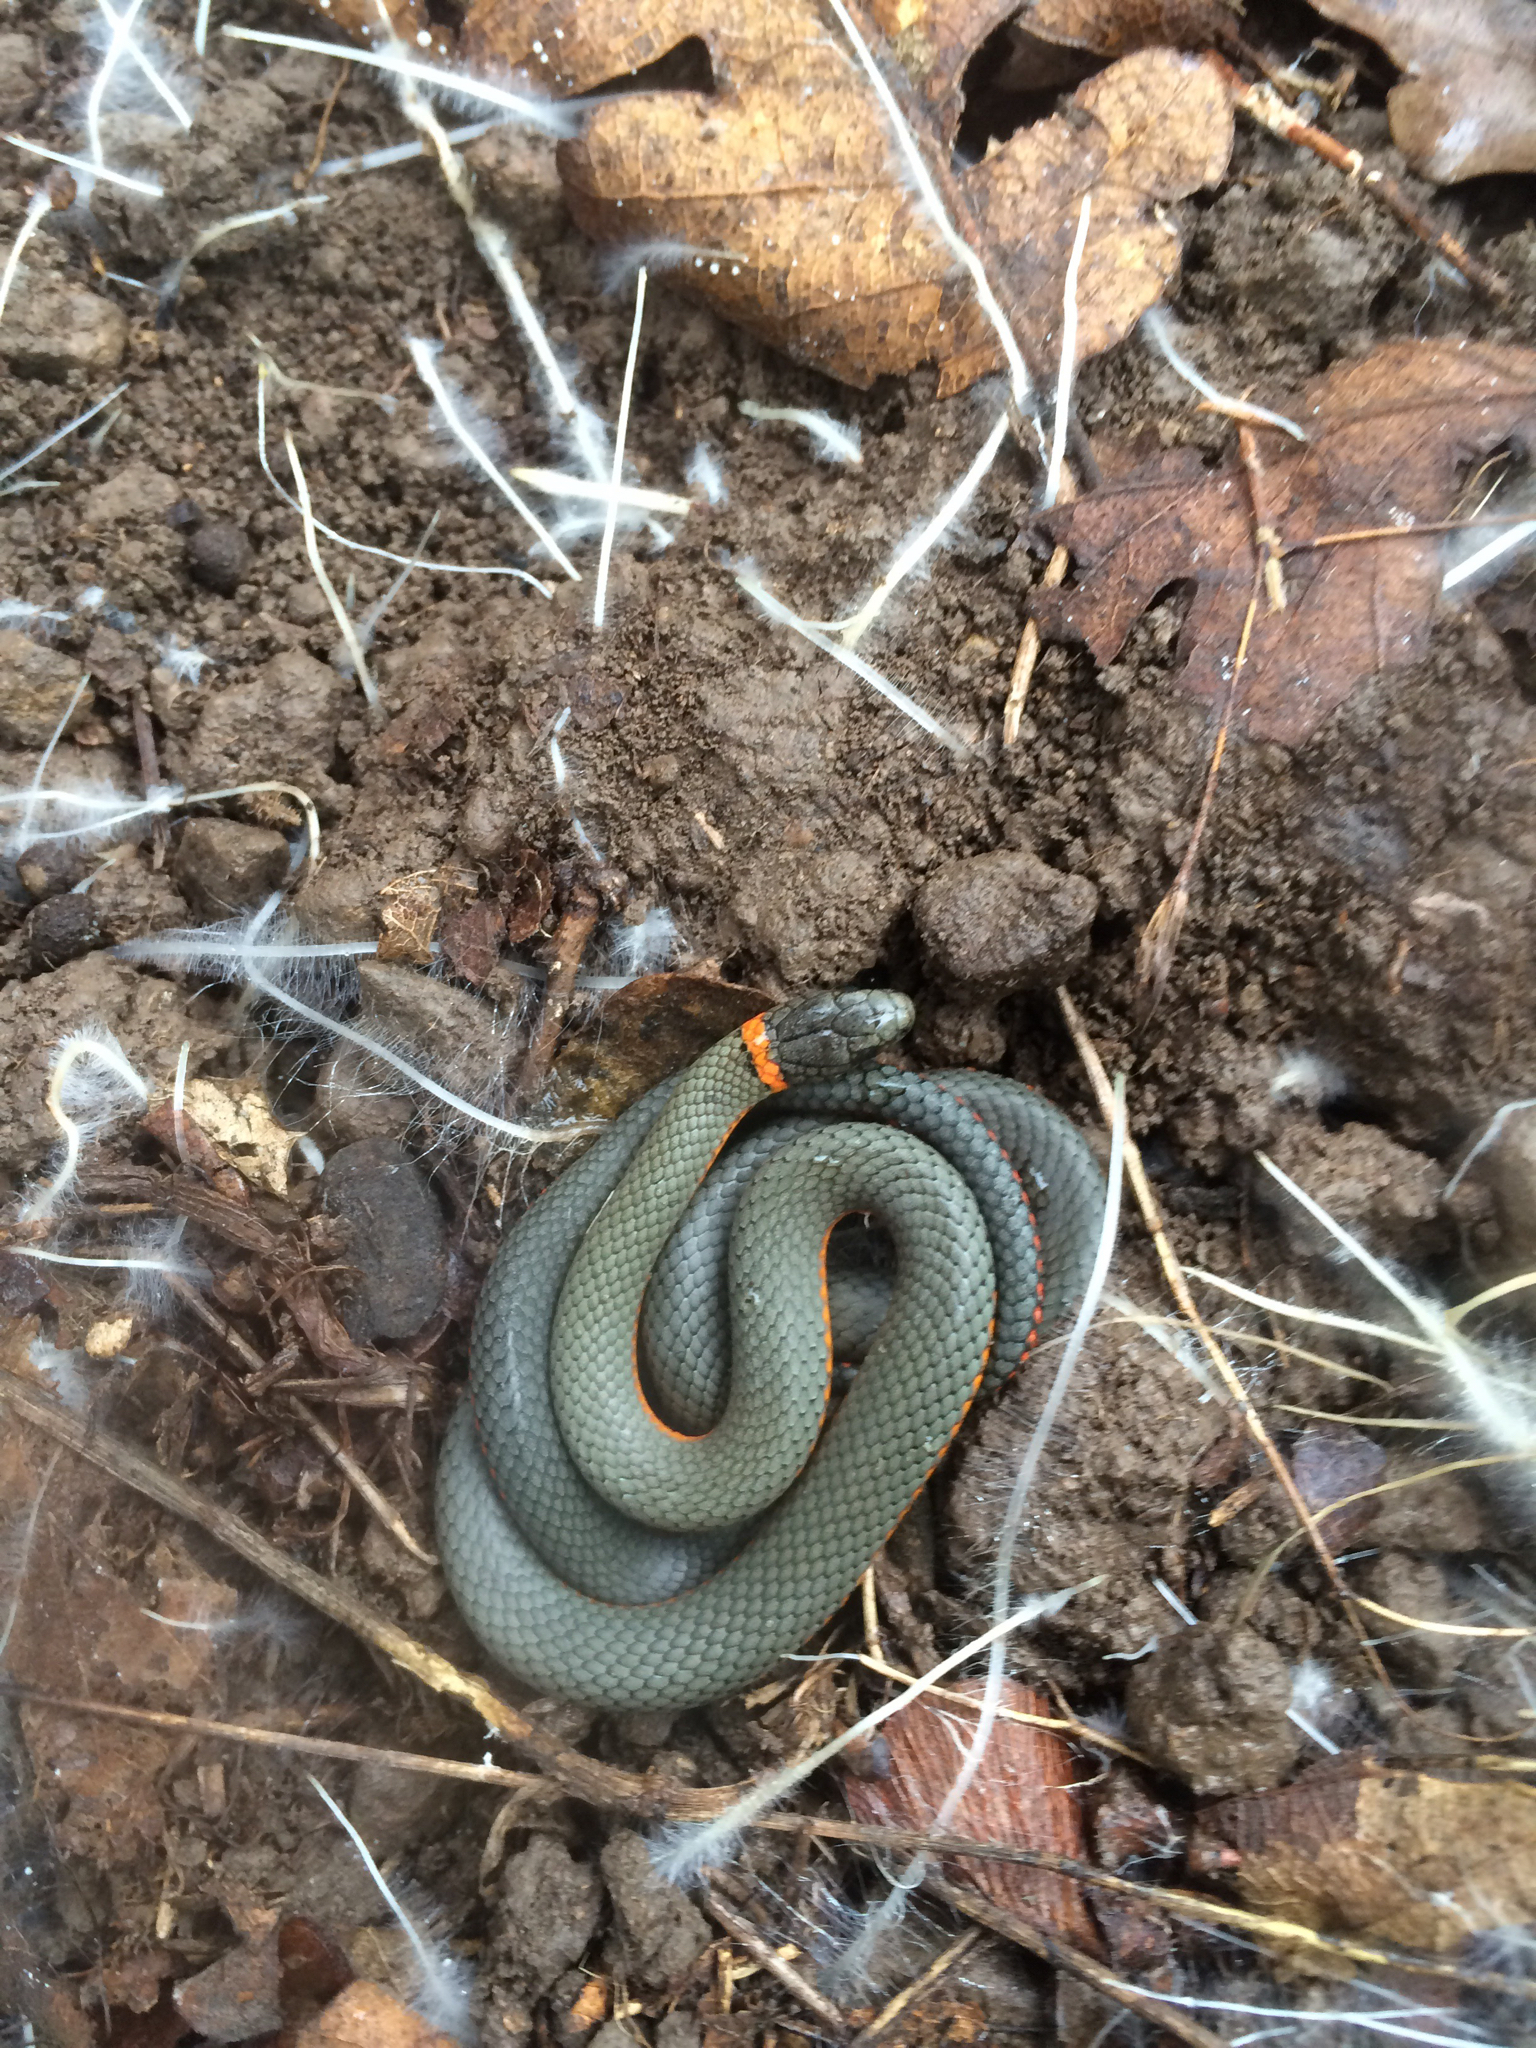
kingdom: Animalia
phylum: Chordata
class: Squamata
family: Colubridae
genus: Diadophis
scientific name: Diadophis punctatus
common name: Ringneck snake
